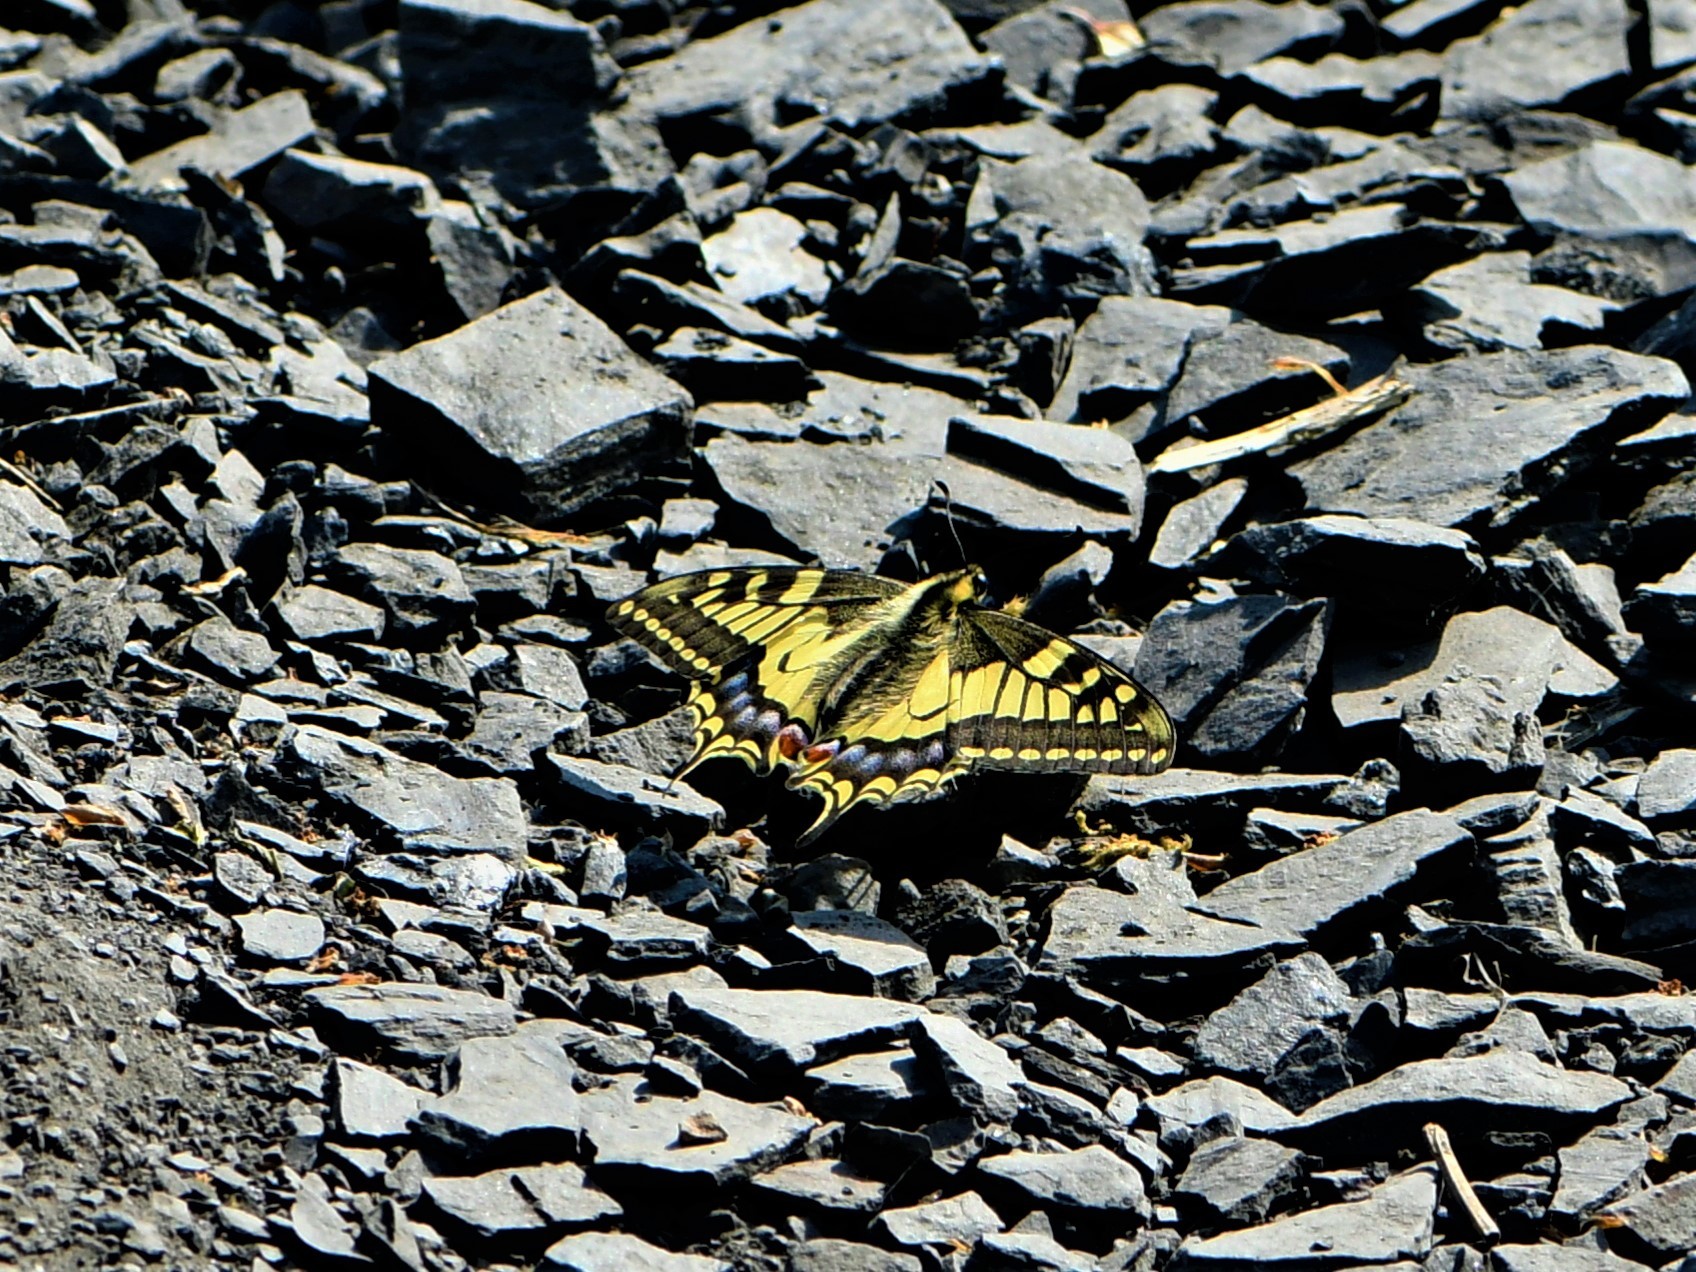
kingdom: Animalia
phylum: Arthropoda
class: Insecta
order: Lepidoptera
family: Papilionidae
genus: Papilio
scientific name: Papilio machaon
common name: Swallowtail
